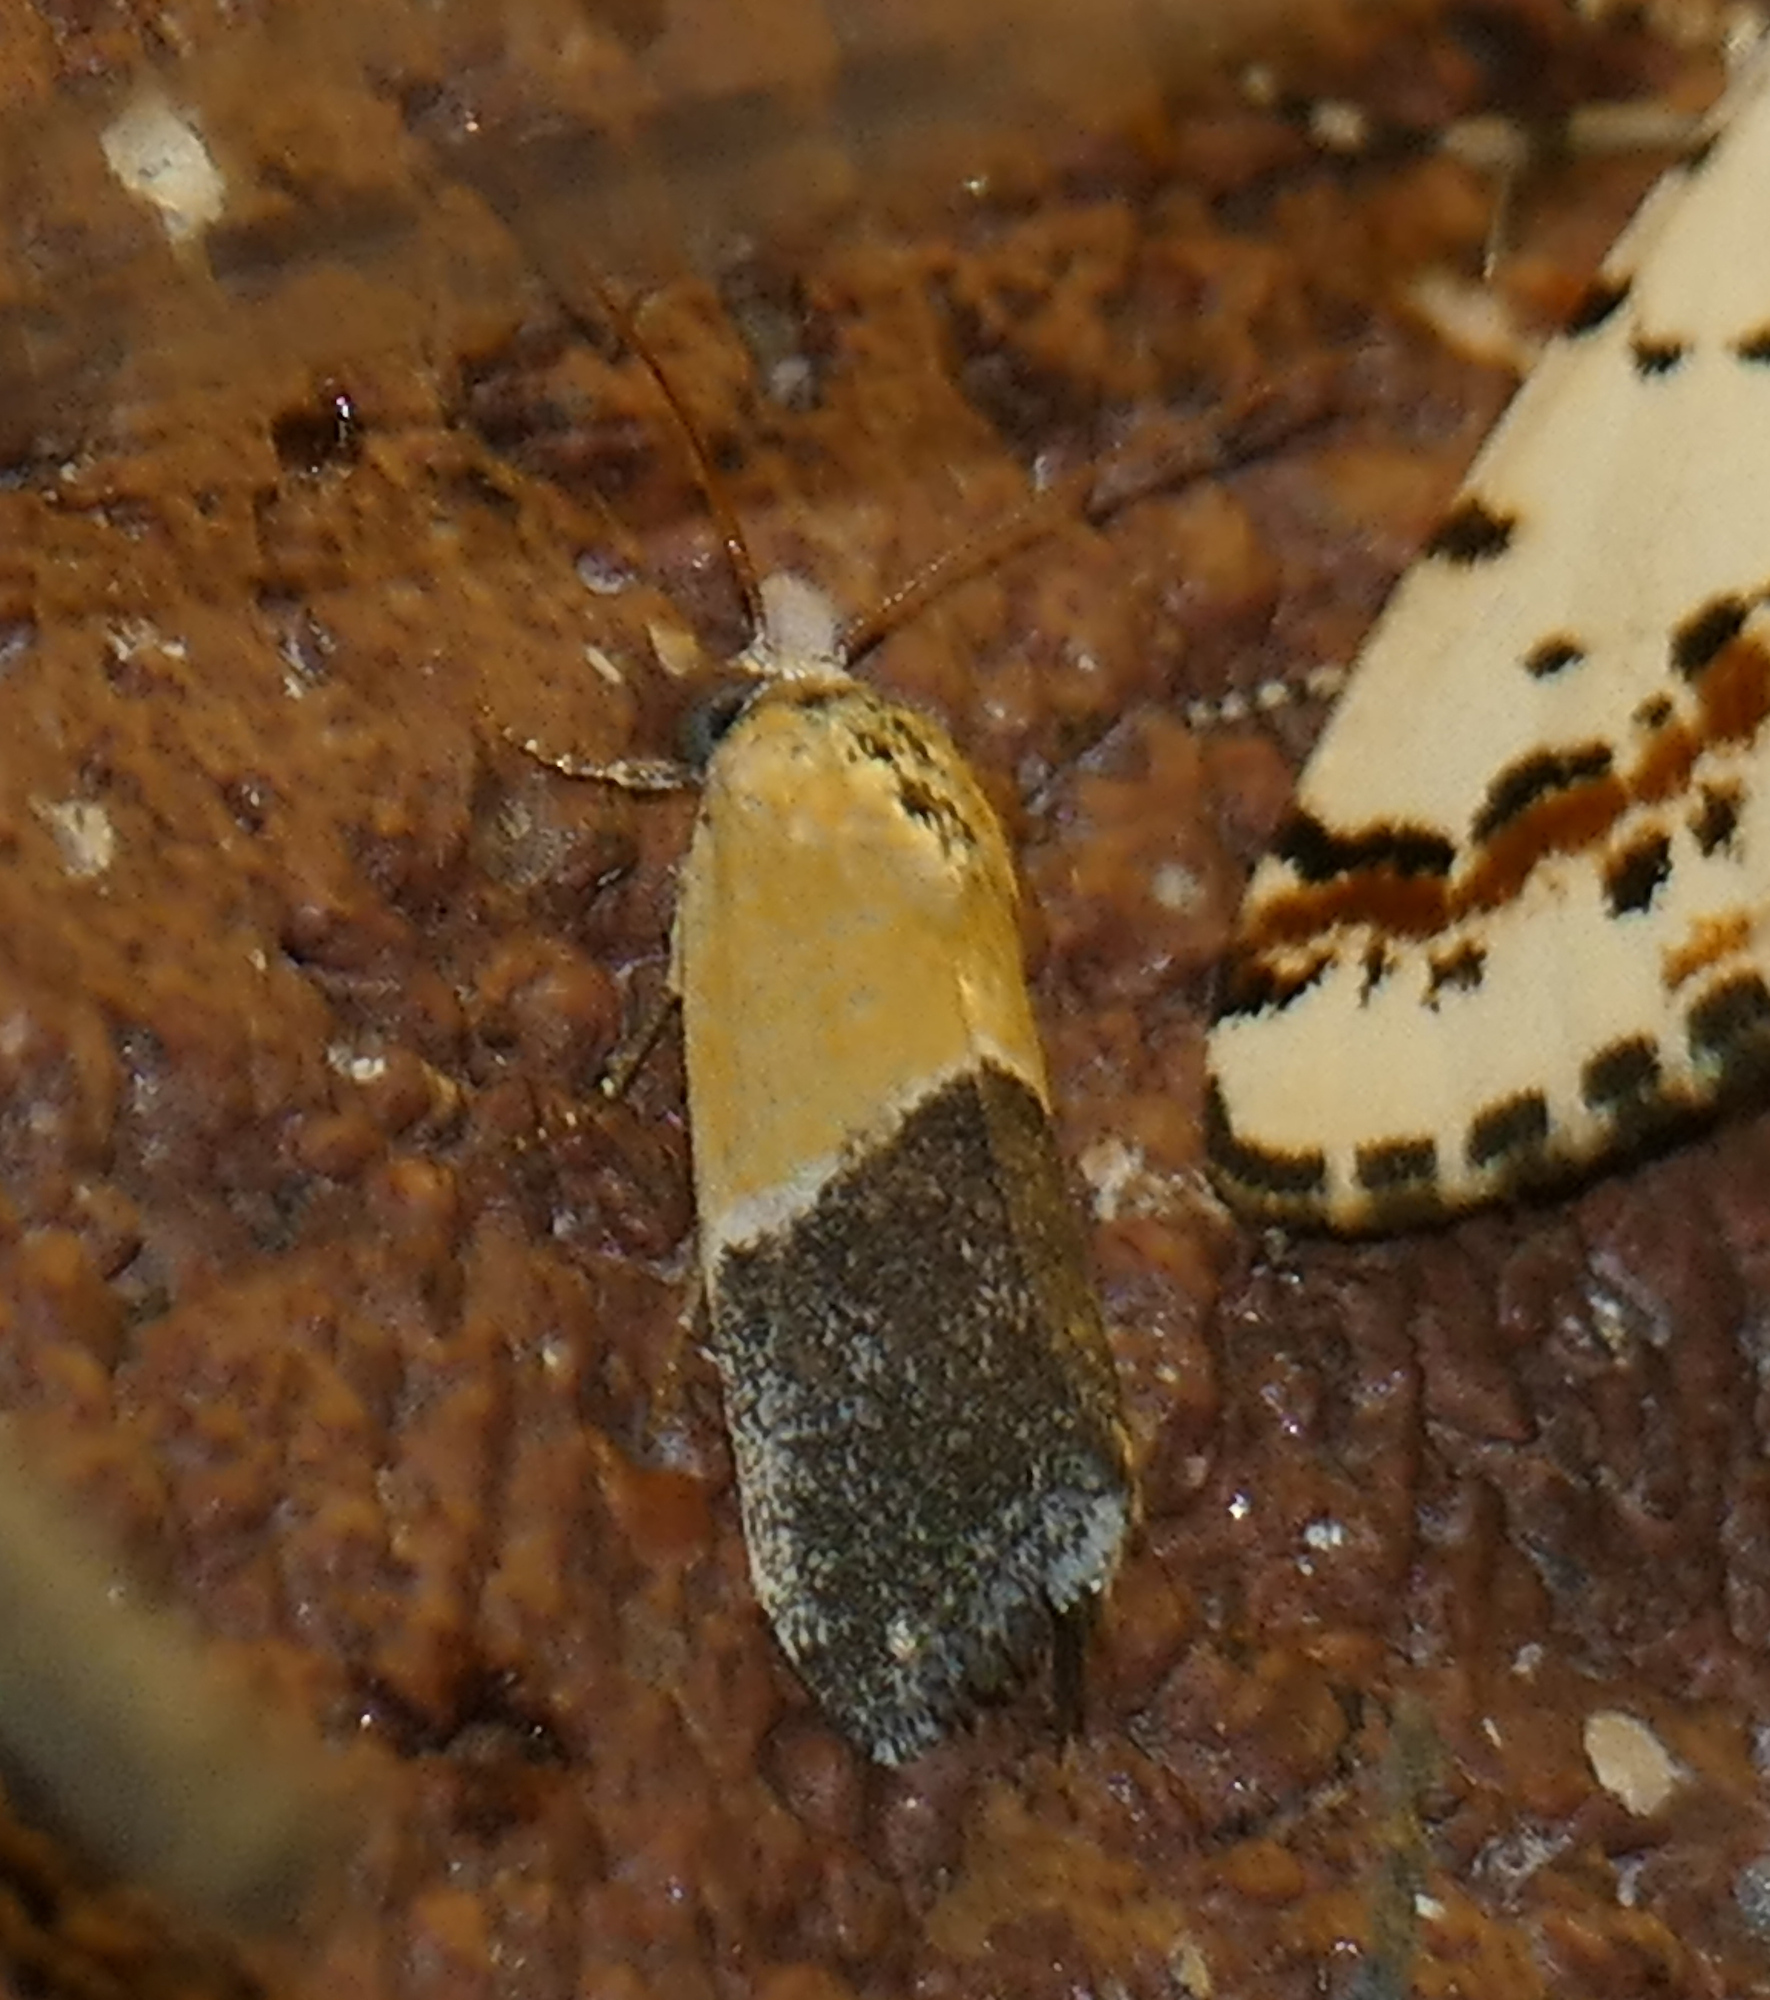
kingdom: Animalia
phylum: Arthropoda
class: Insecta
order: Lepidoptera
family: Noctuidae
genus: Acontia
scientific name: Acontia clausula
